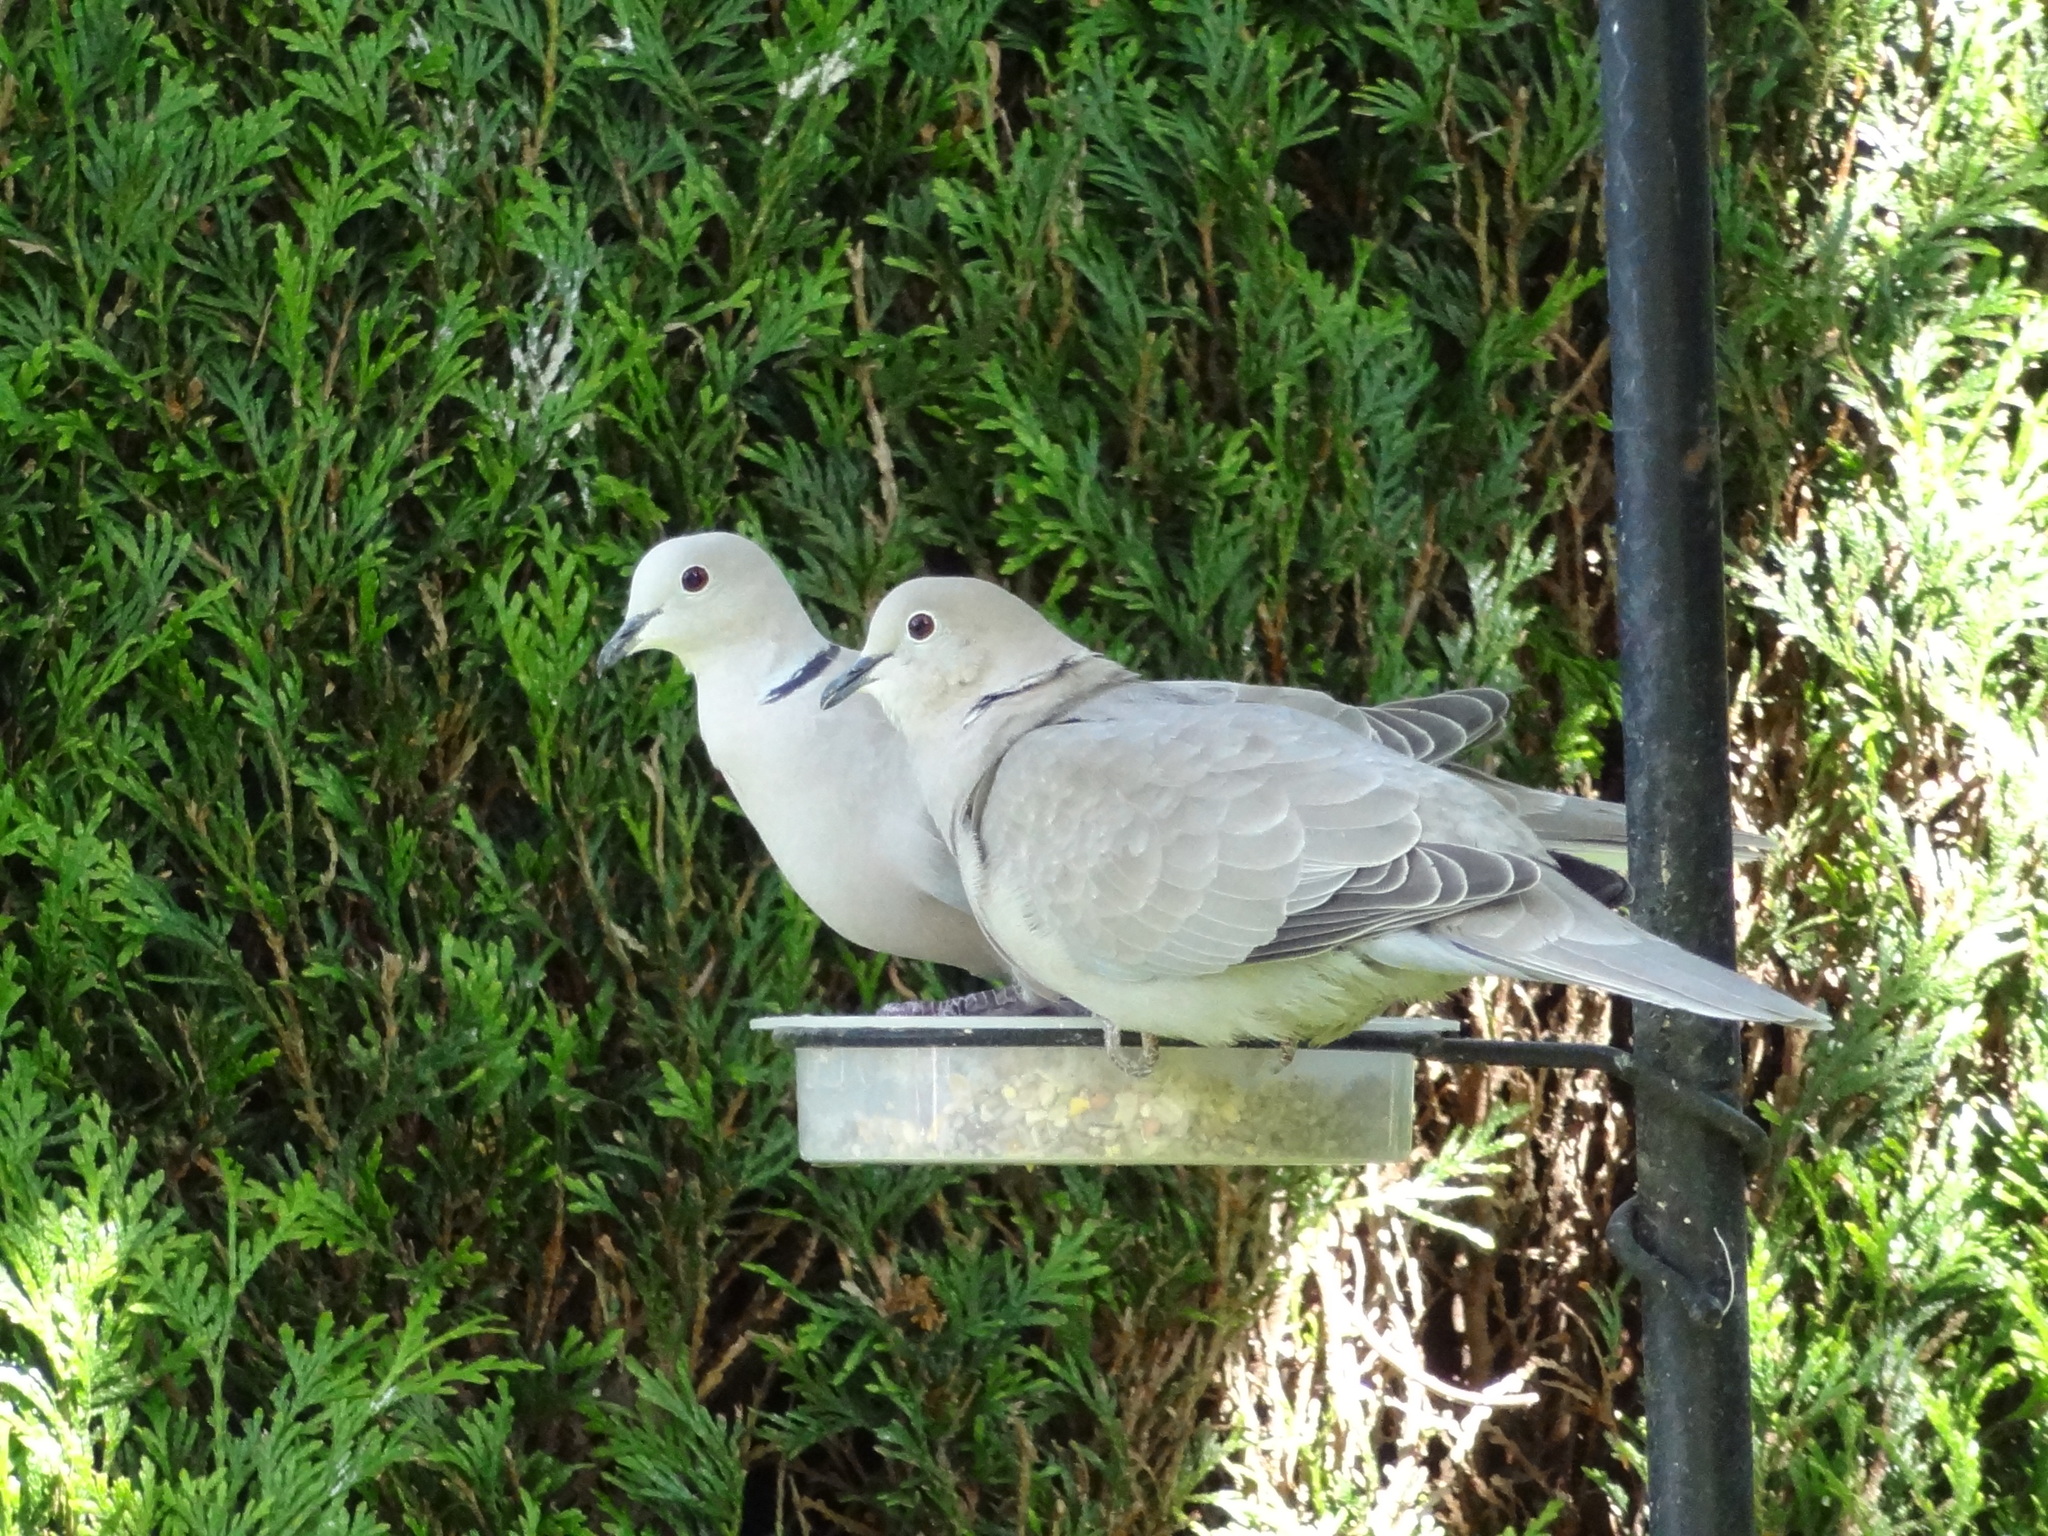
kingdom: Animalia
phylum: Chordata
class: Aves
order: Columbiformes
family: Columbidae
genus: Streptopelia
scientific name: Streptopelia decaocto
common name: Eurasian collared dove
